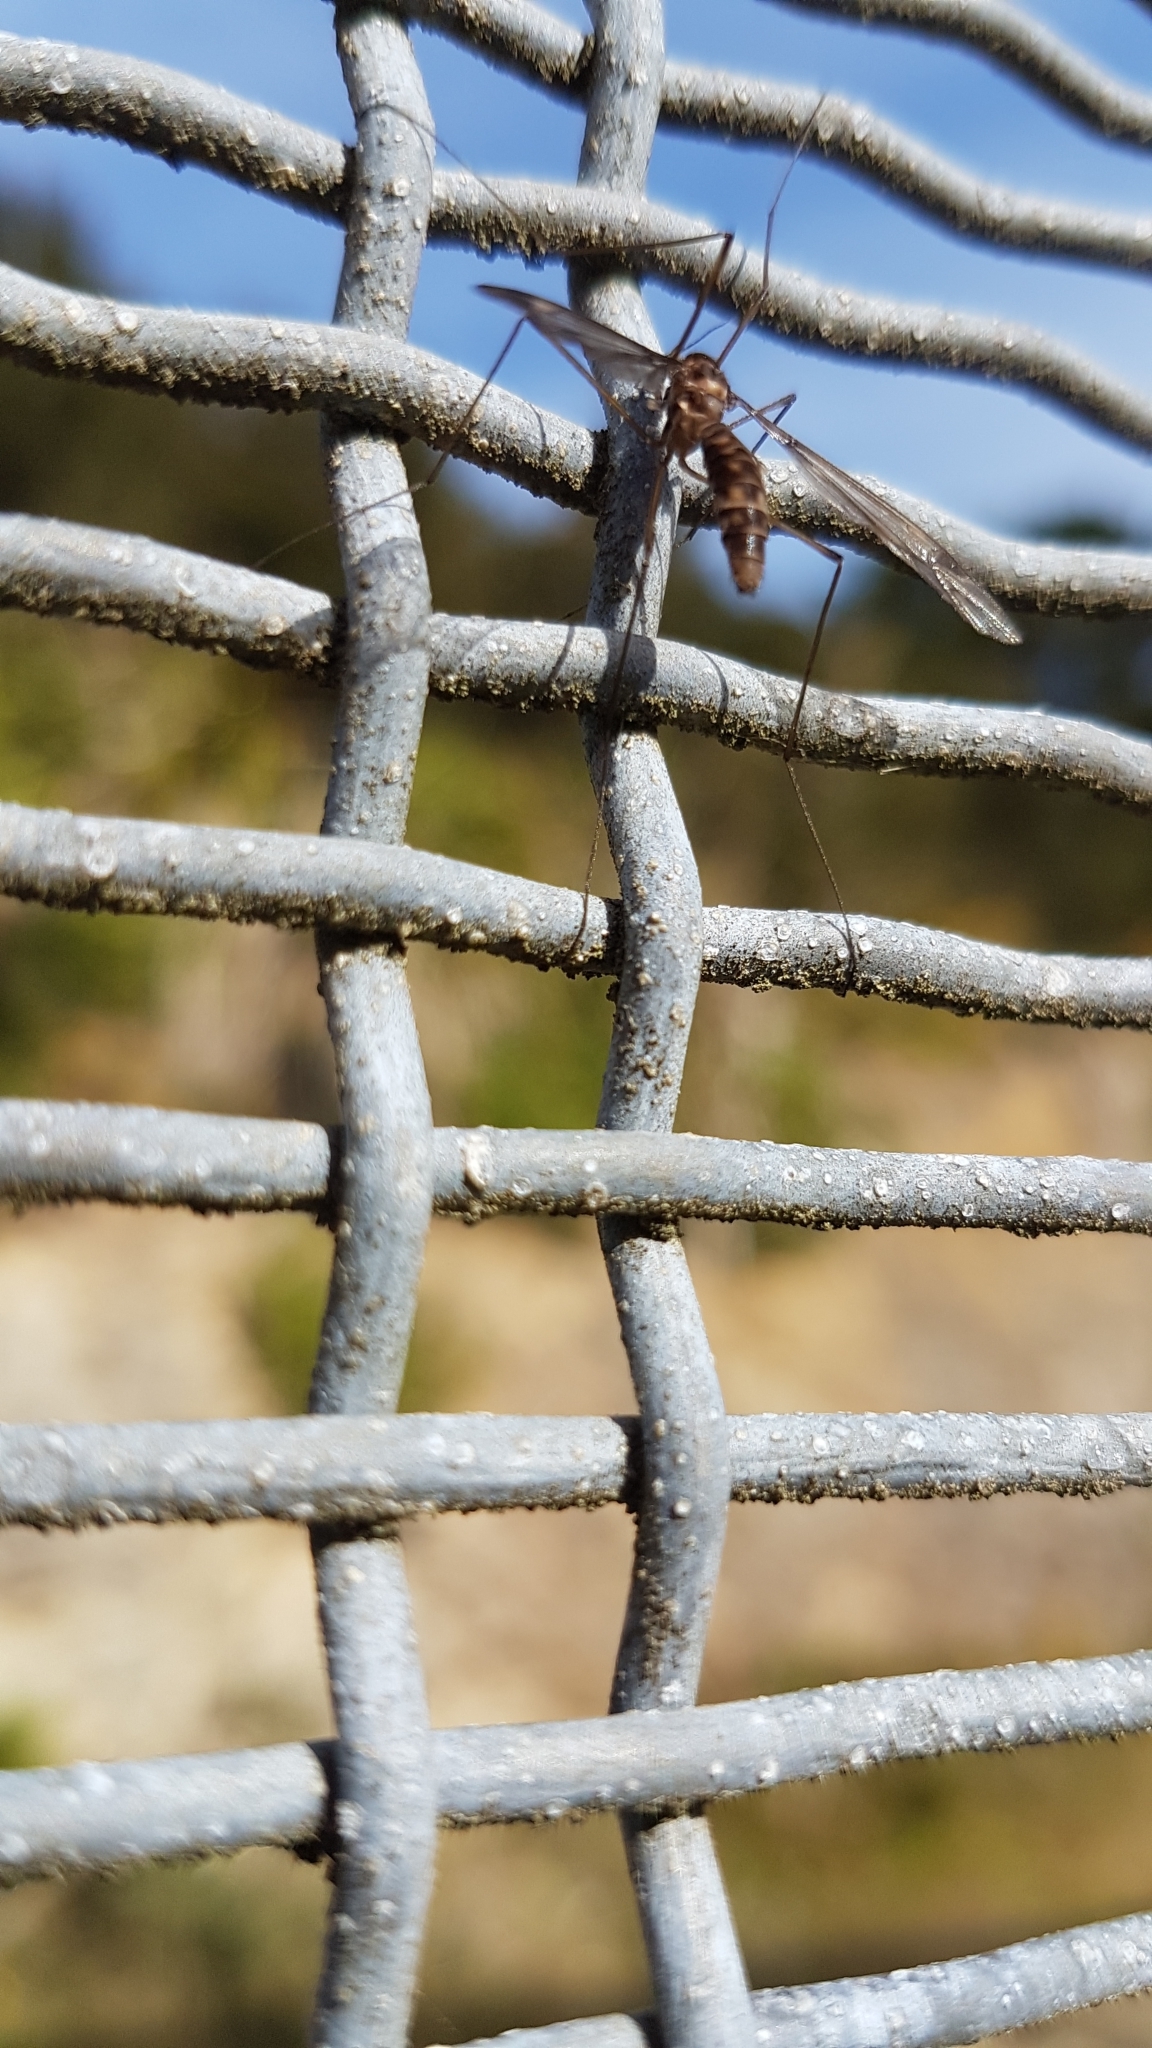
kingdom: Animalia
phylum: Arthropoda
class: Insecta
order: Diptera
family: Tipulidae
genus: Leptotarsus
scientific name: Leptotarsus cubitalis
